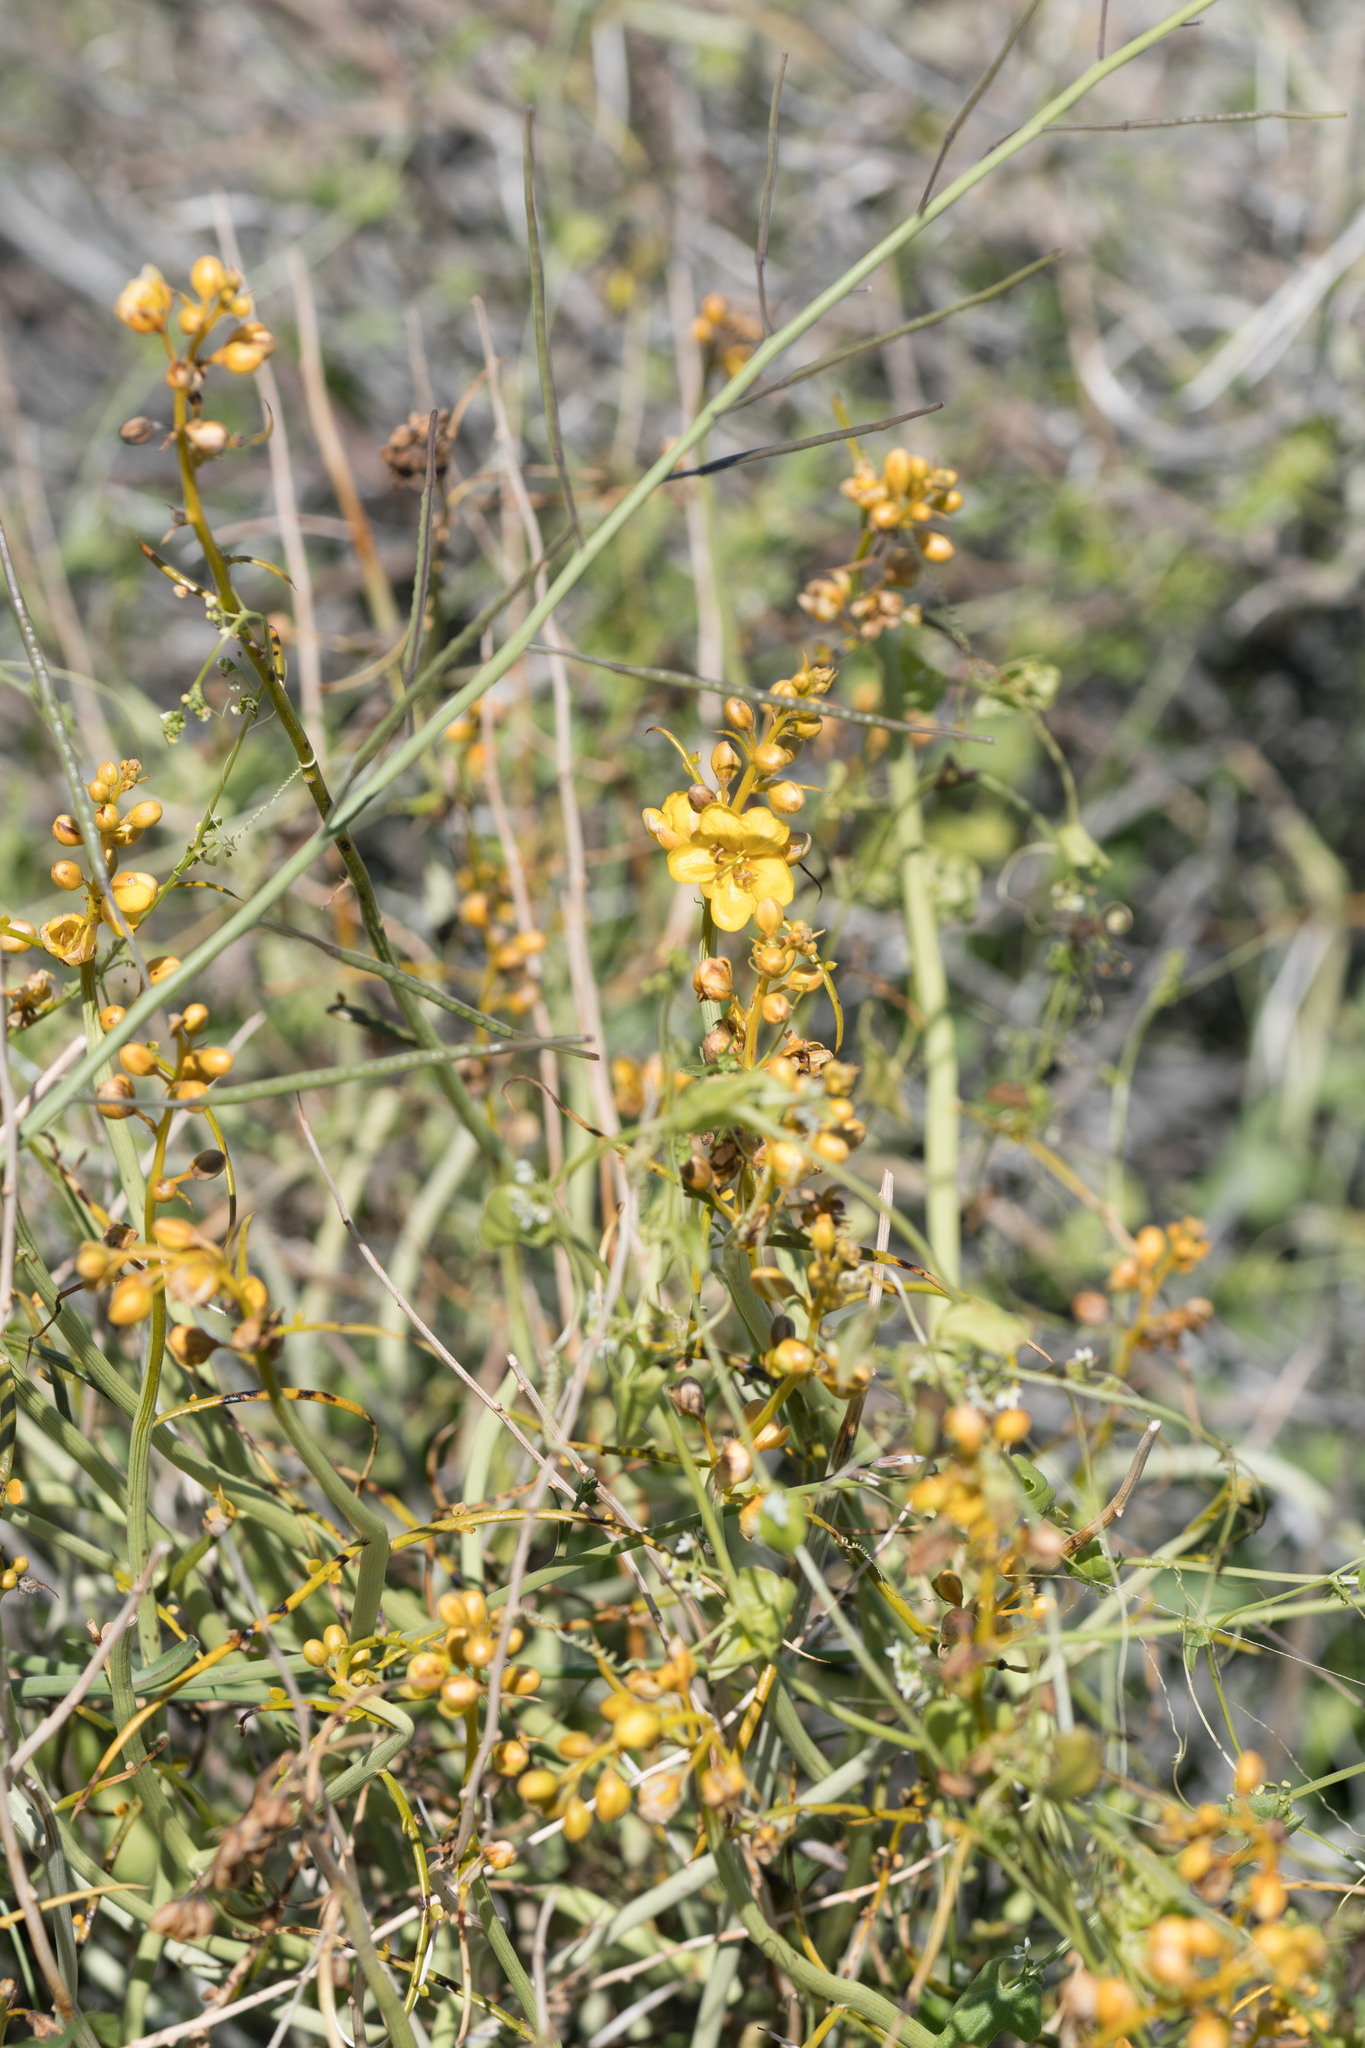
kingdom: Plantae
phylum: Tracheophyta
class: Magnoliopsida
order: Fabales
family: Fabaceae
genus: Senna
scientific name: Senna armata
